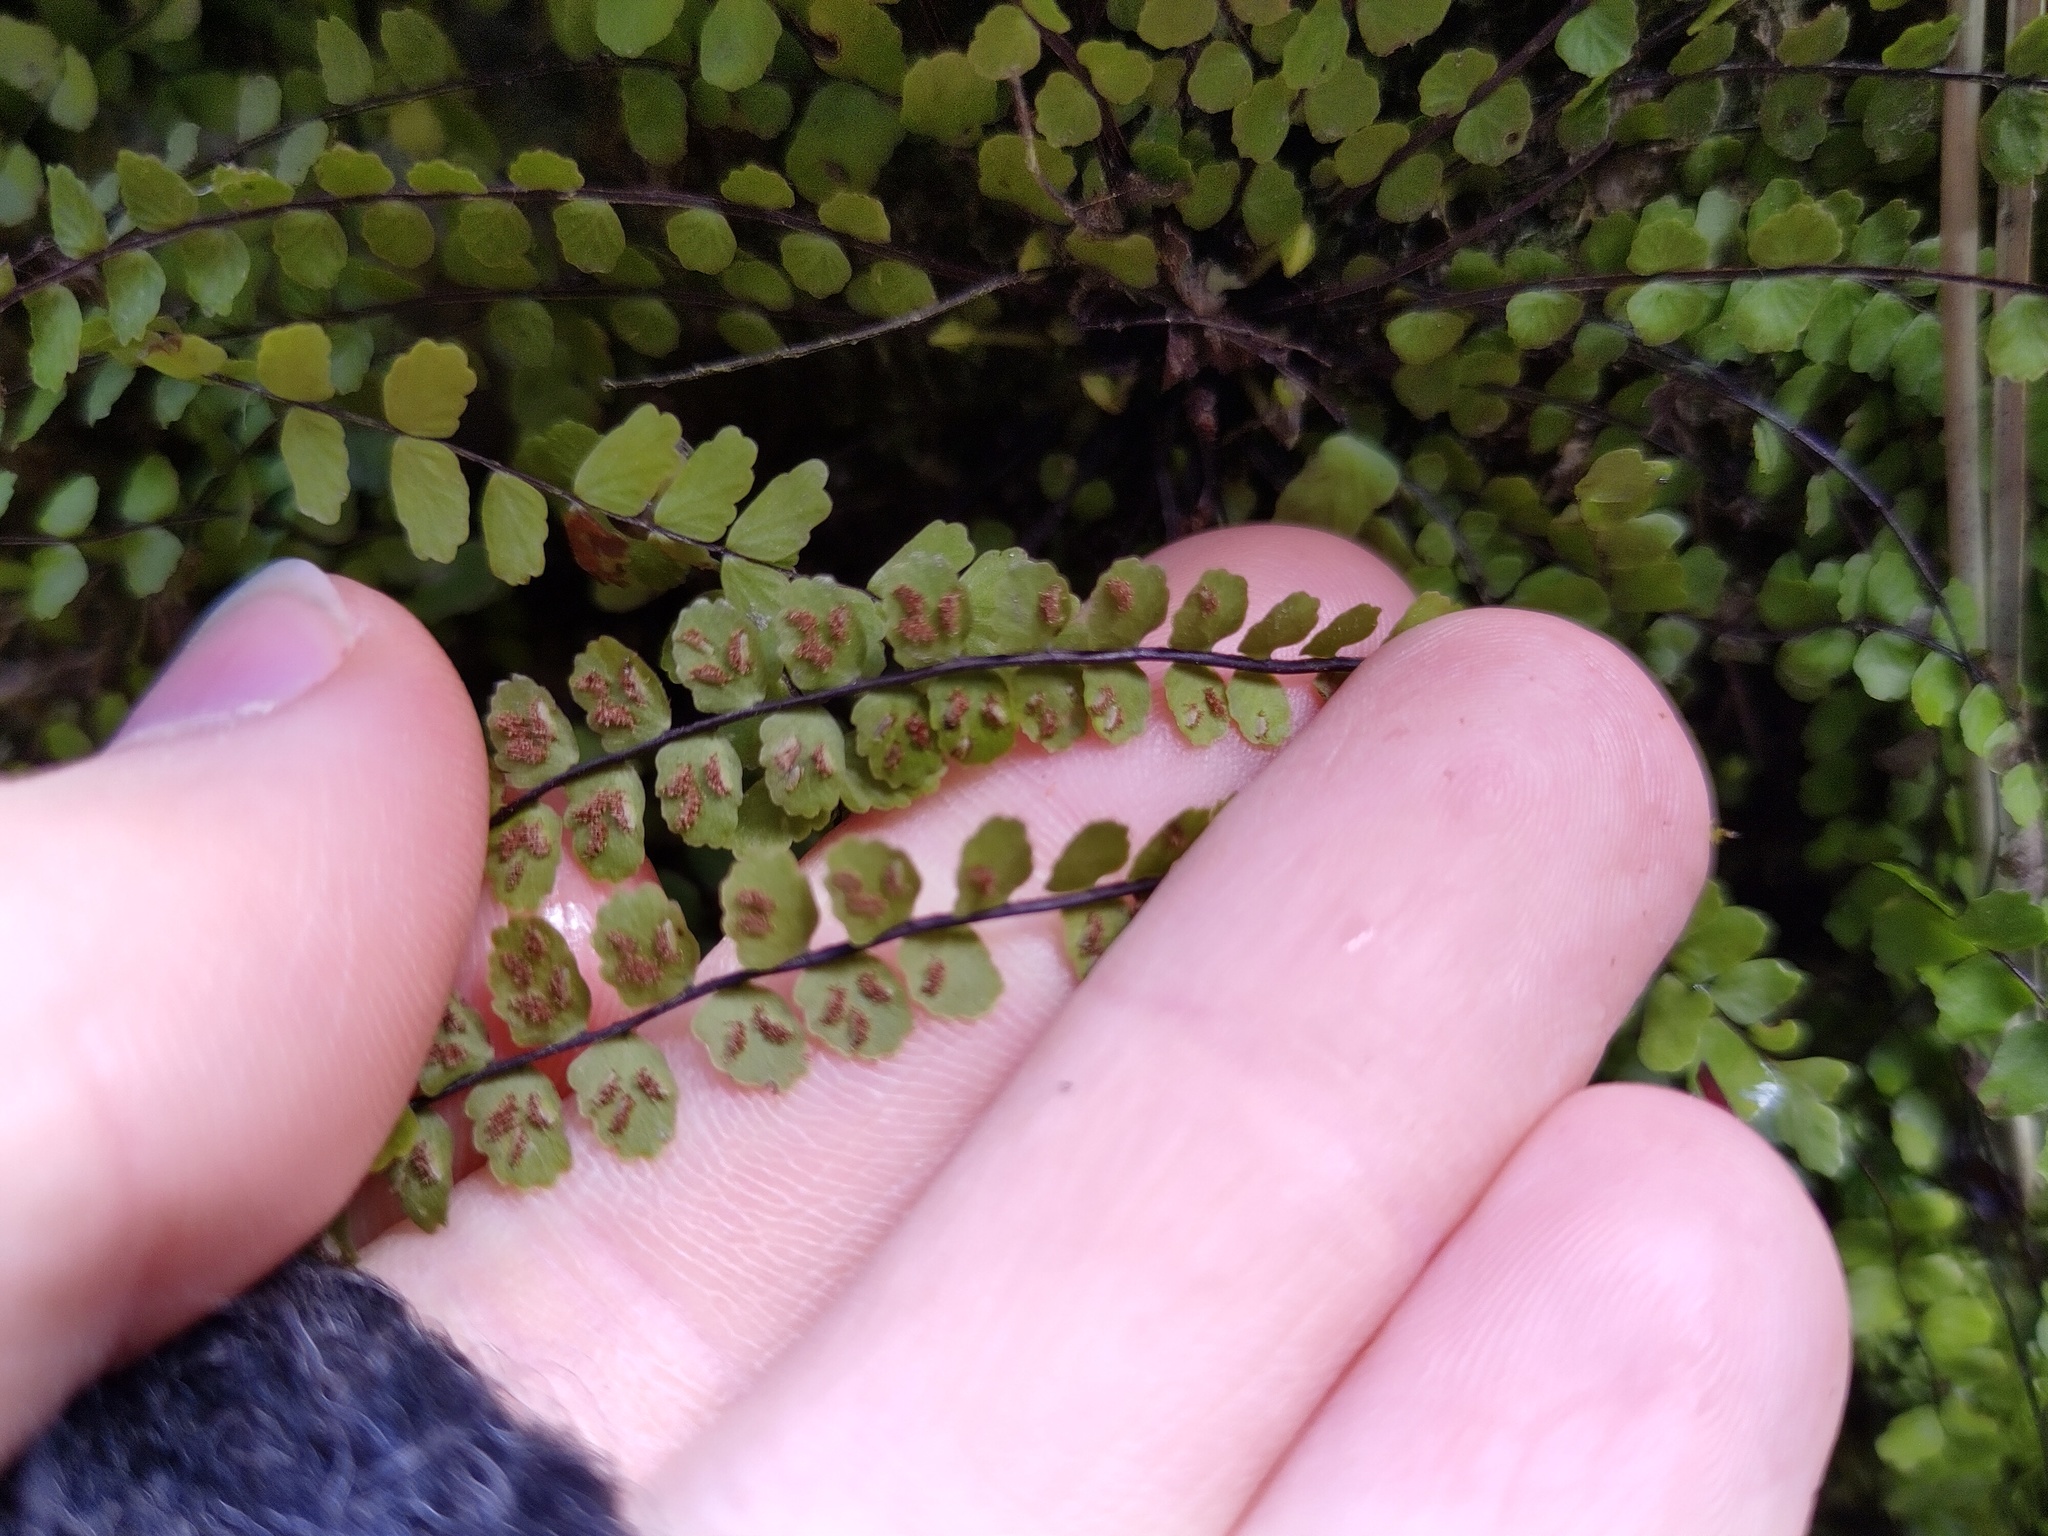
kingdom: Plantae
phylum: Tracheophyta
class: Polypodiopsida
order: Polypodiales
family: Aspleniaceae
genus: Asplenium
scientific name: Asplenium trichomanes
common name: Maidenhair spleenwort
